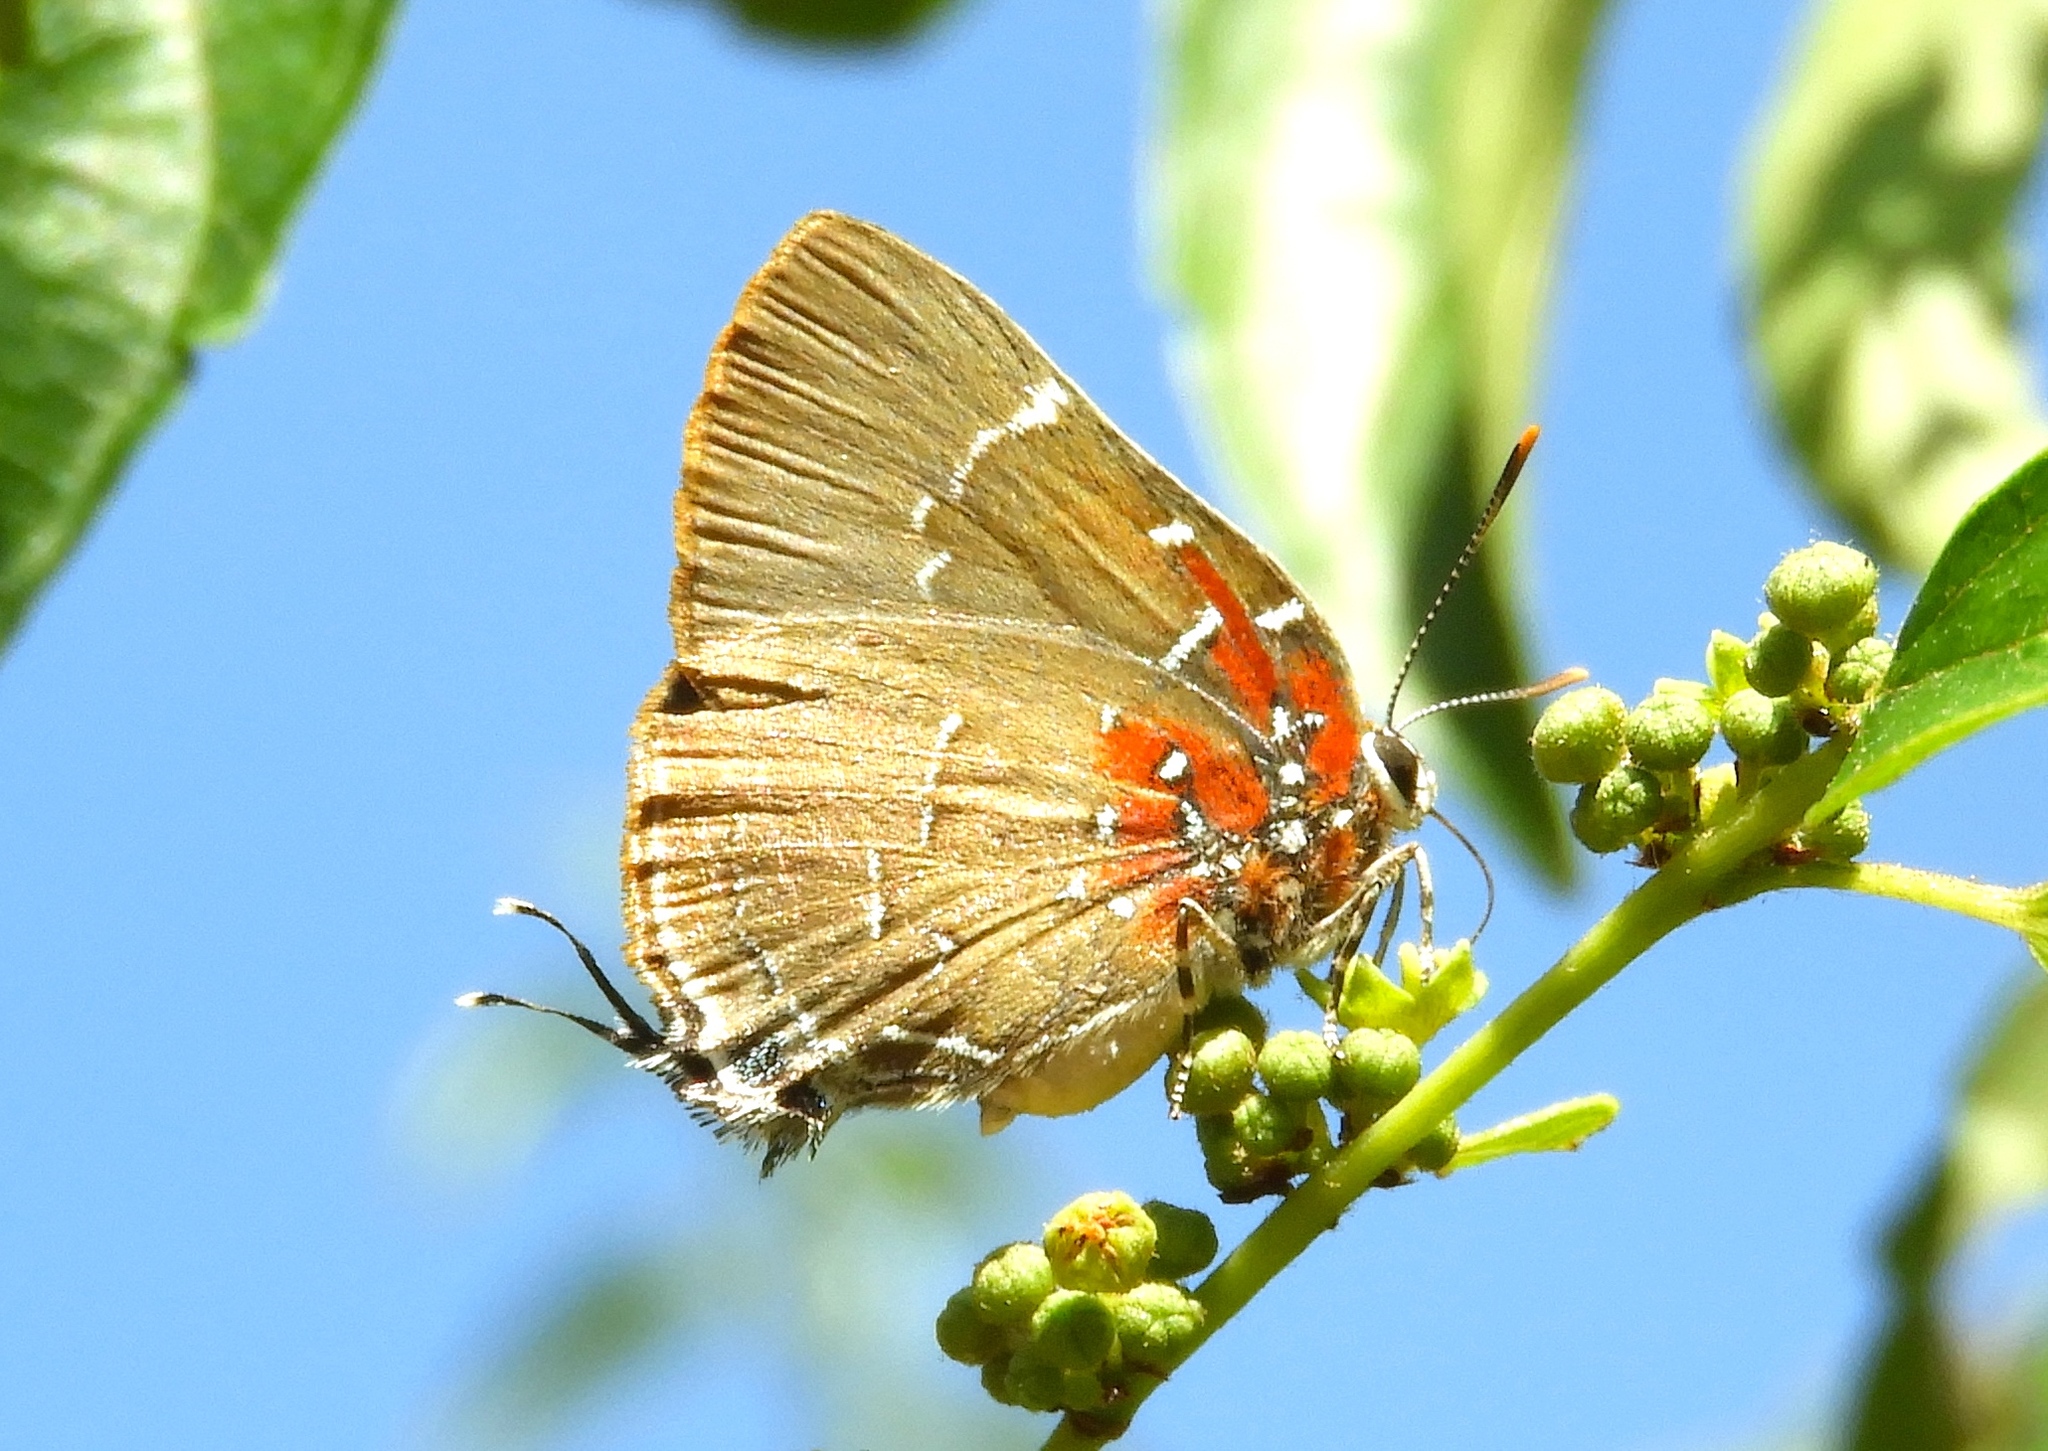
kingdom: Animalia
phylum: Arthropoda
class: Insecta
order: Lepidoptera
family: Lycaenidae
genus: Atlides
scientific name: Atlides Brangas neora
